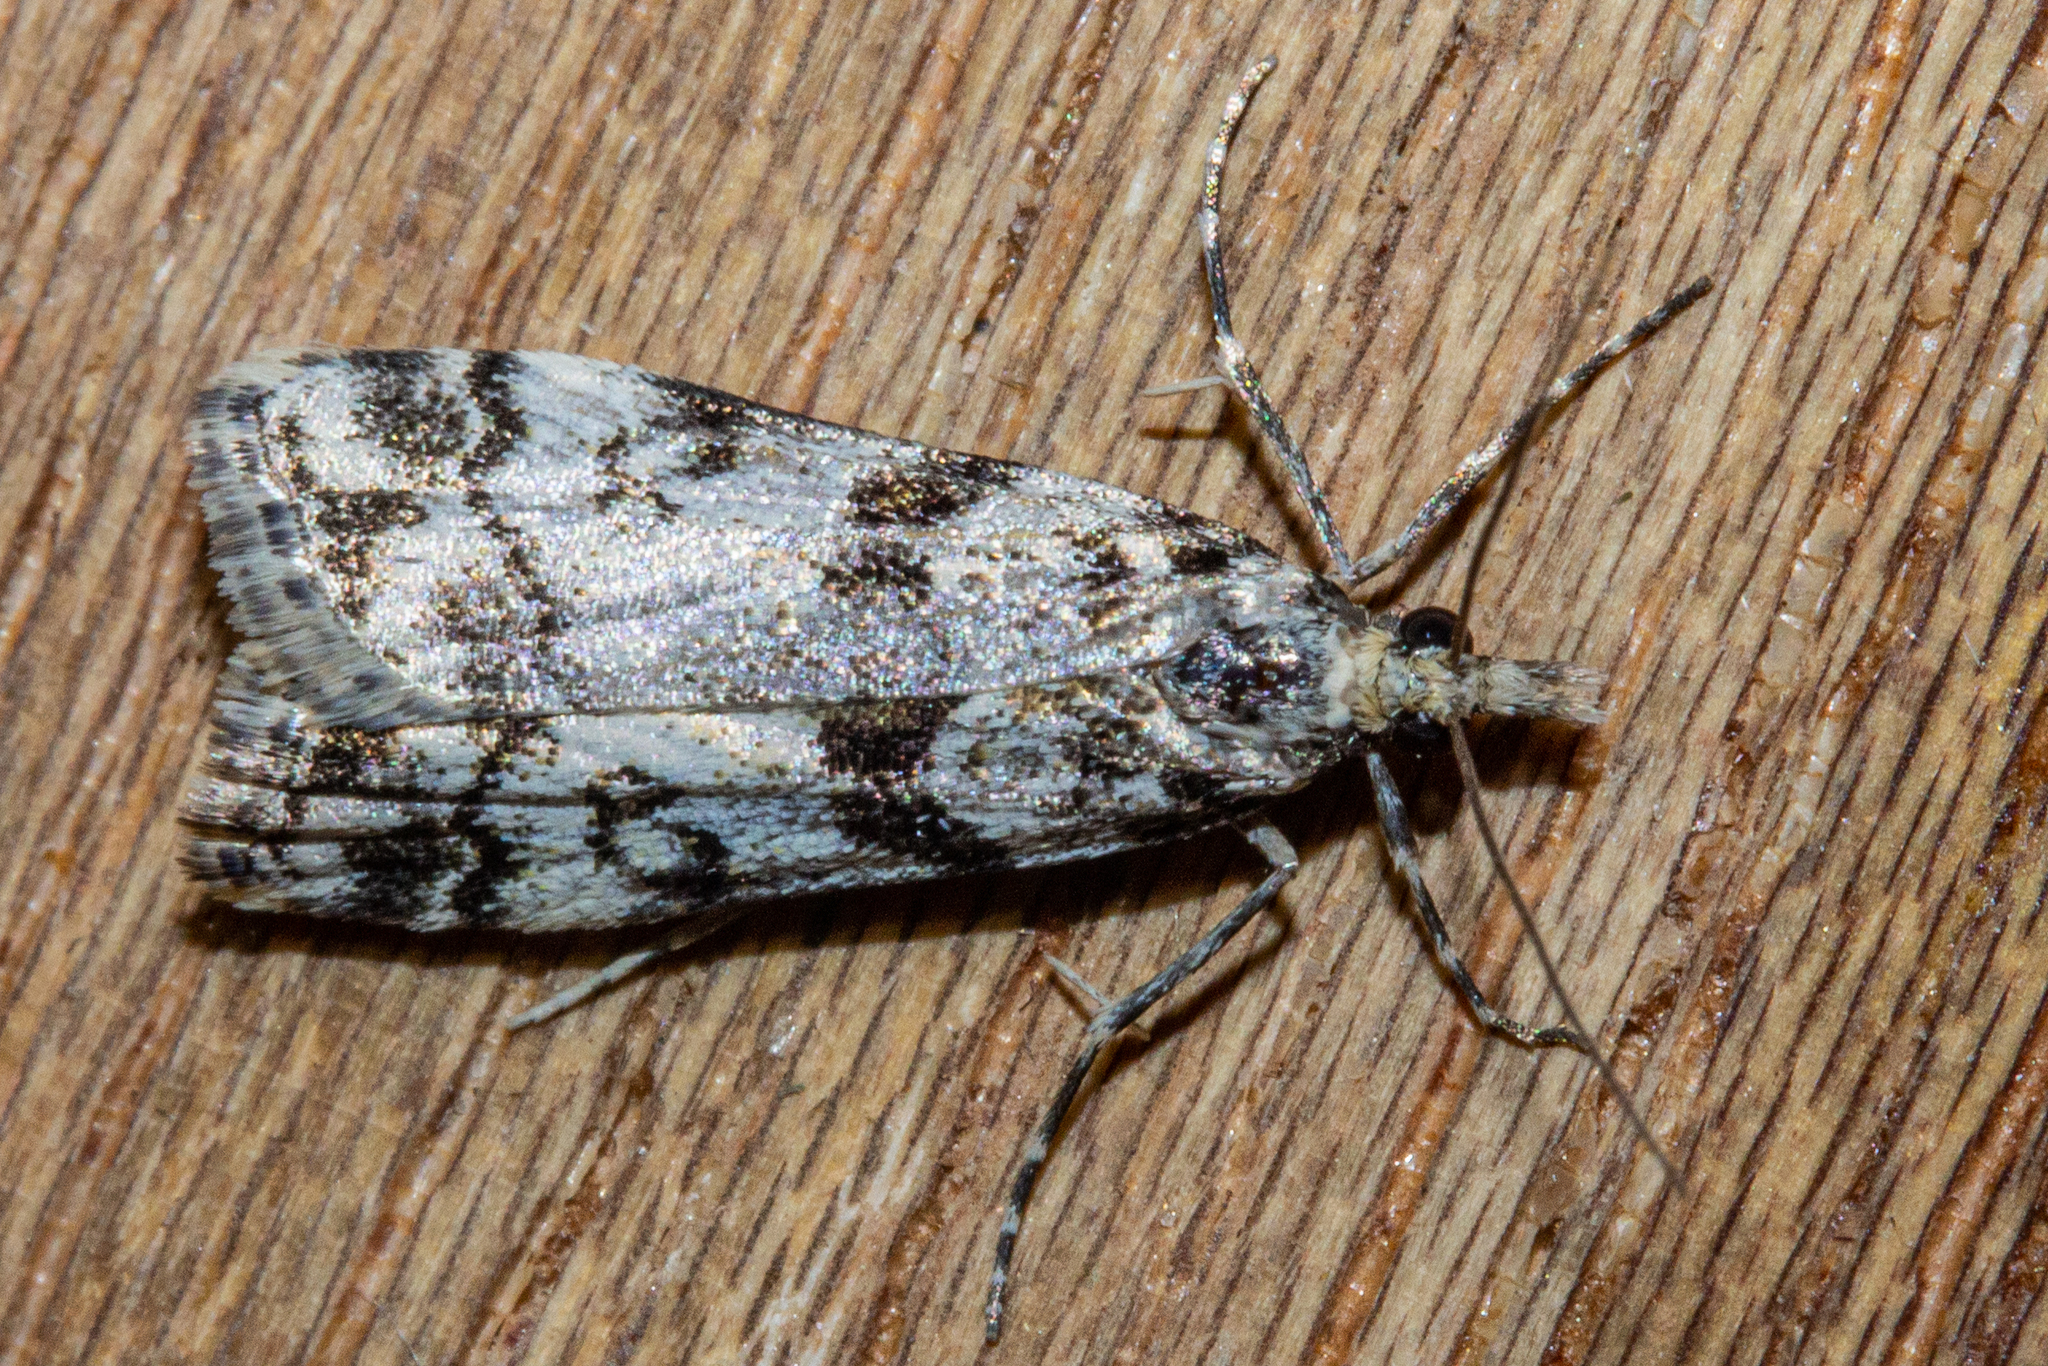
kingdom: Animalia
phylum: Arthropoda
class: Insecta
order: Lepidoptera
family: Crambidae
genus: Eudonia
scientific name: Eudonia torodes
